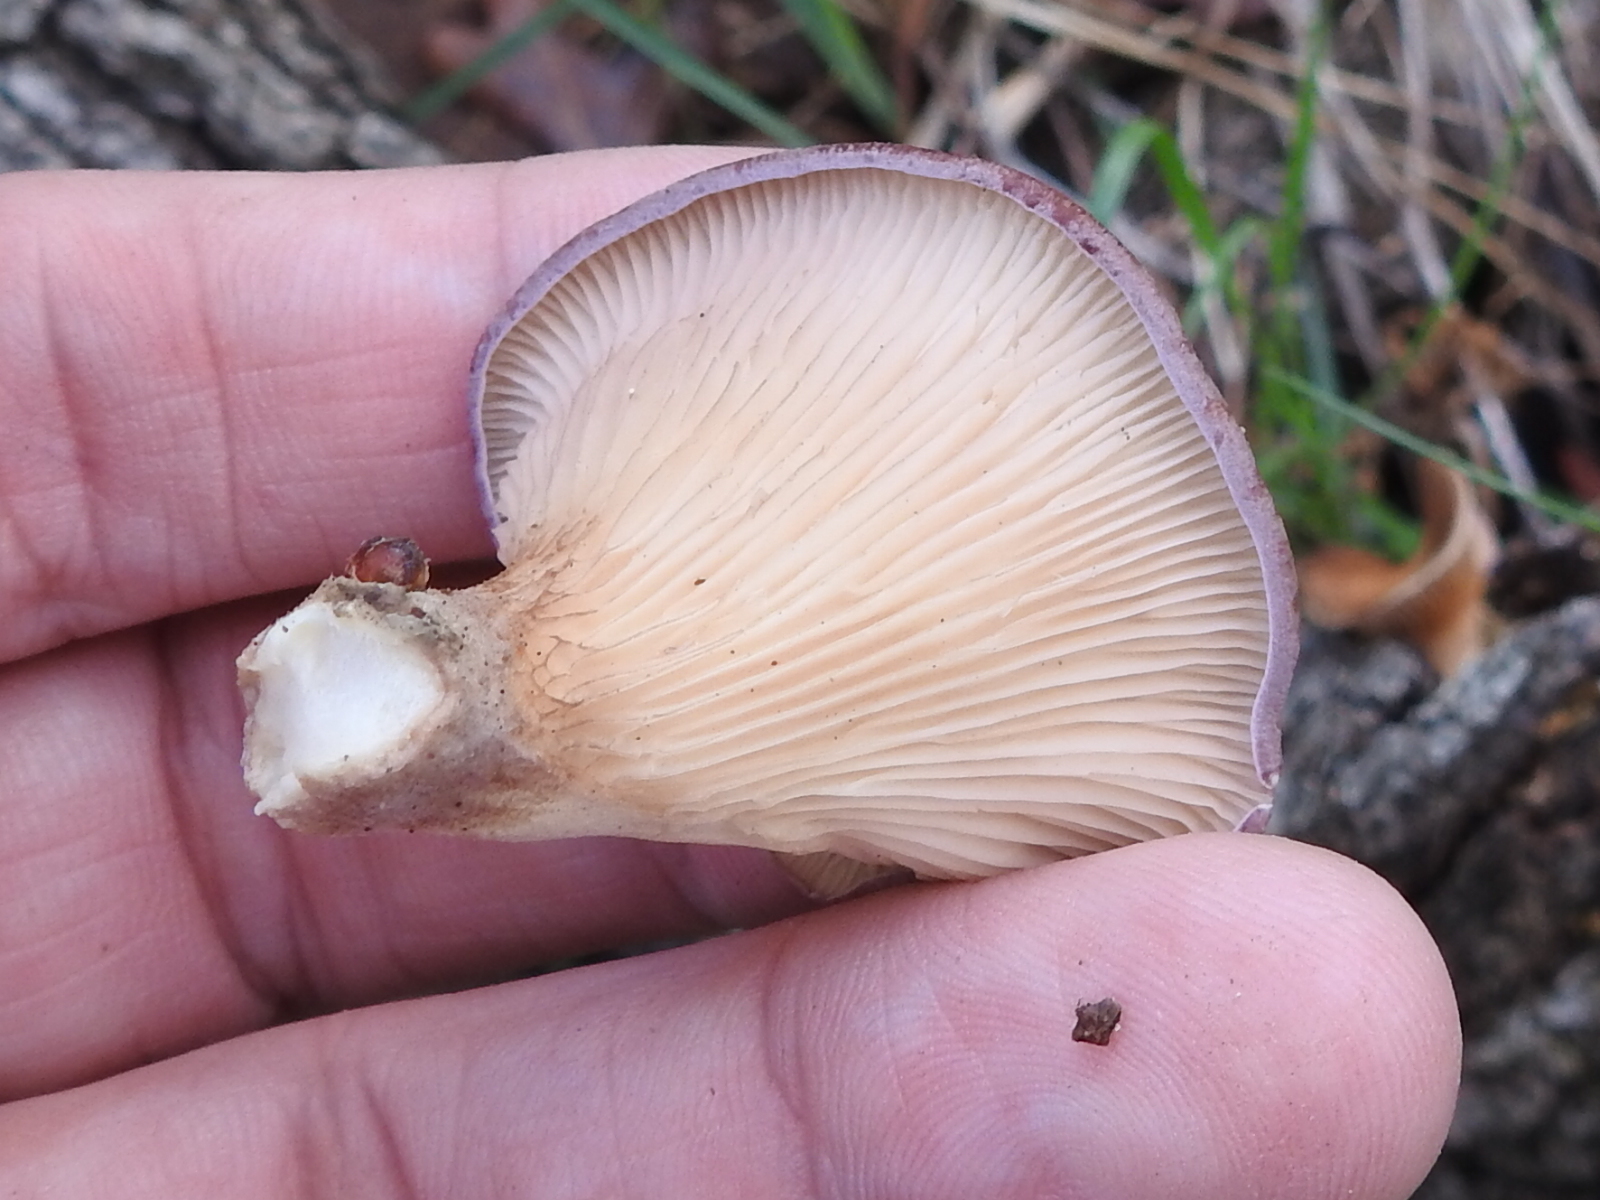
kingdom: Fungi
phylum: Basidiomycota
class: Agaricomycetes
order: Polyporales
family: Panaceae
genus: Panus
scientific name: Panus neostrigosus
